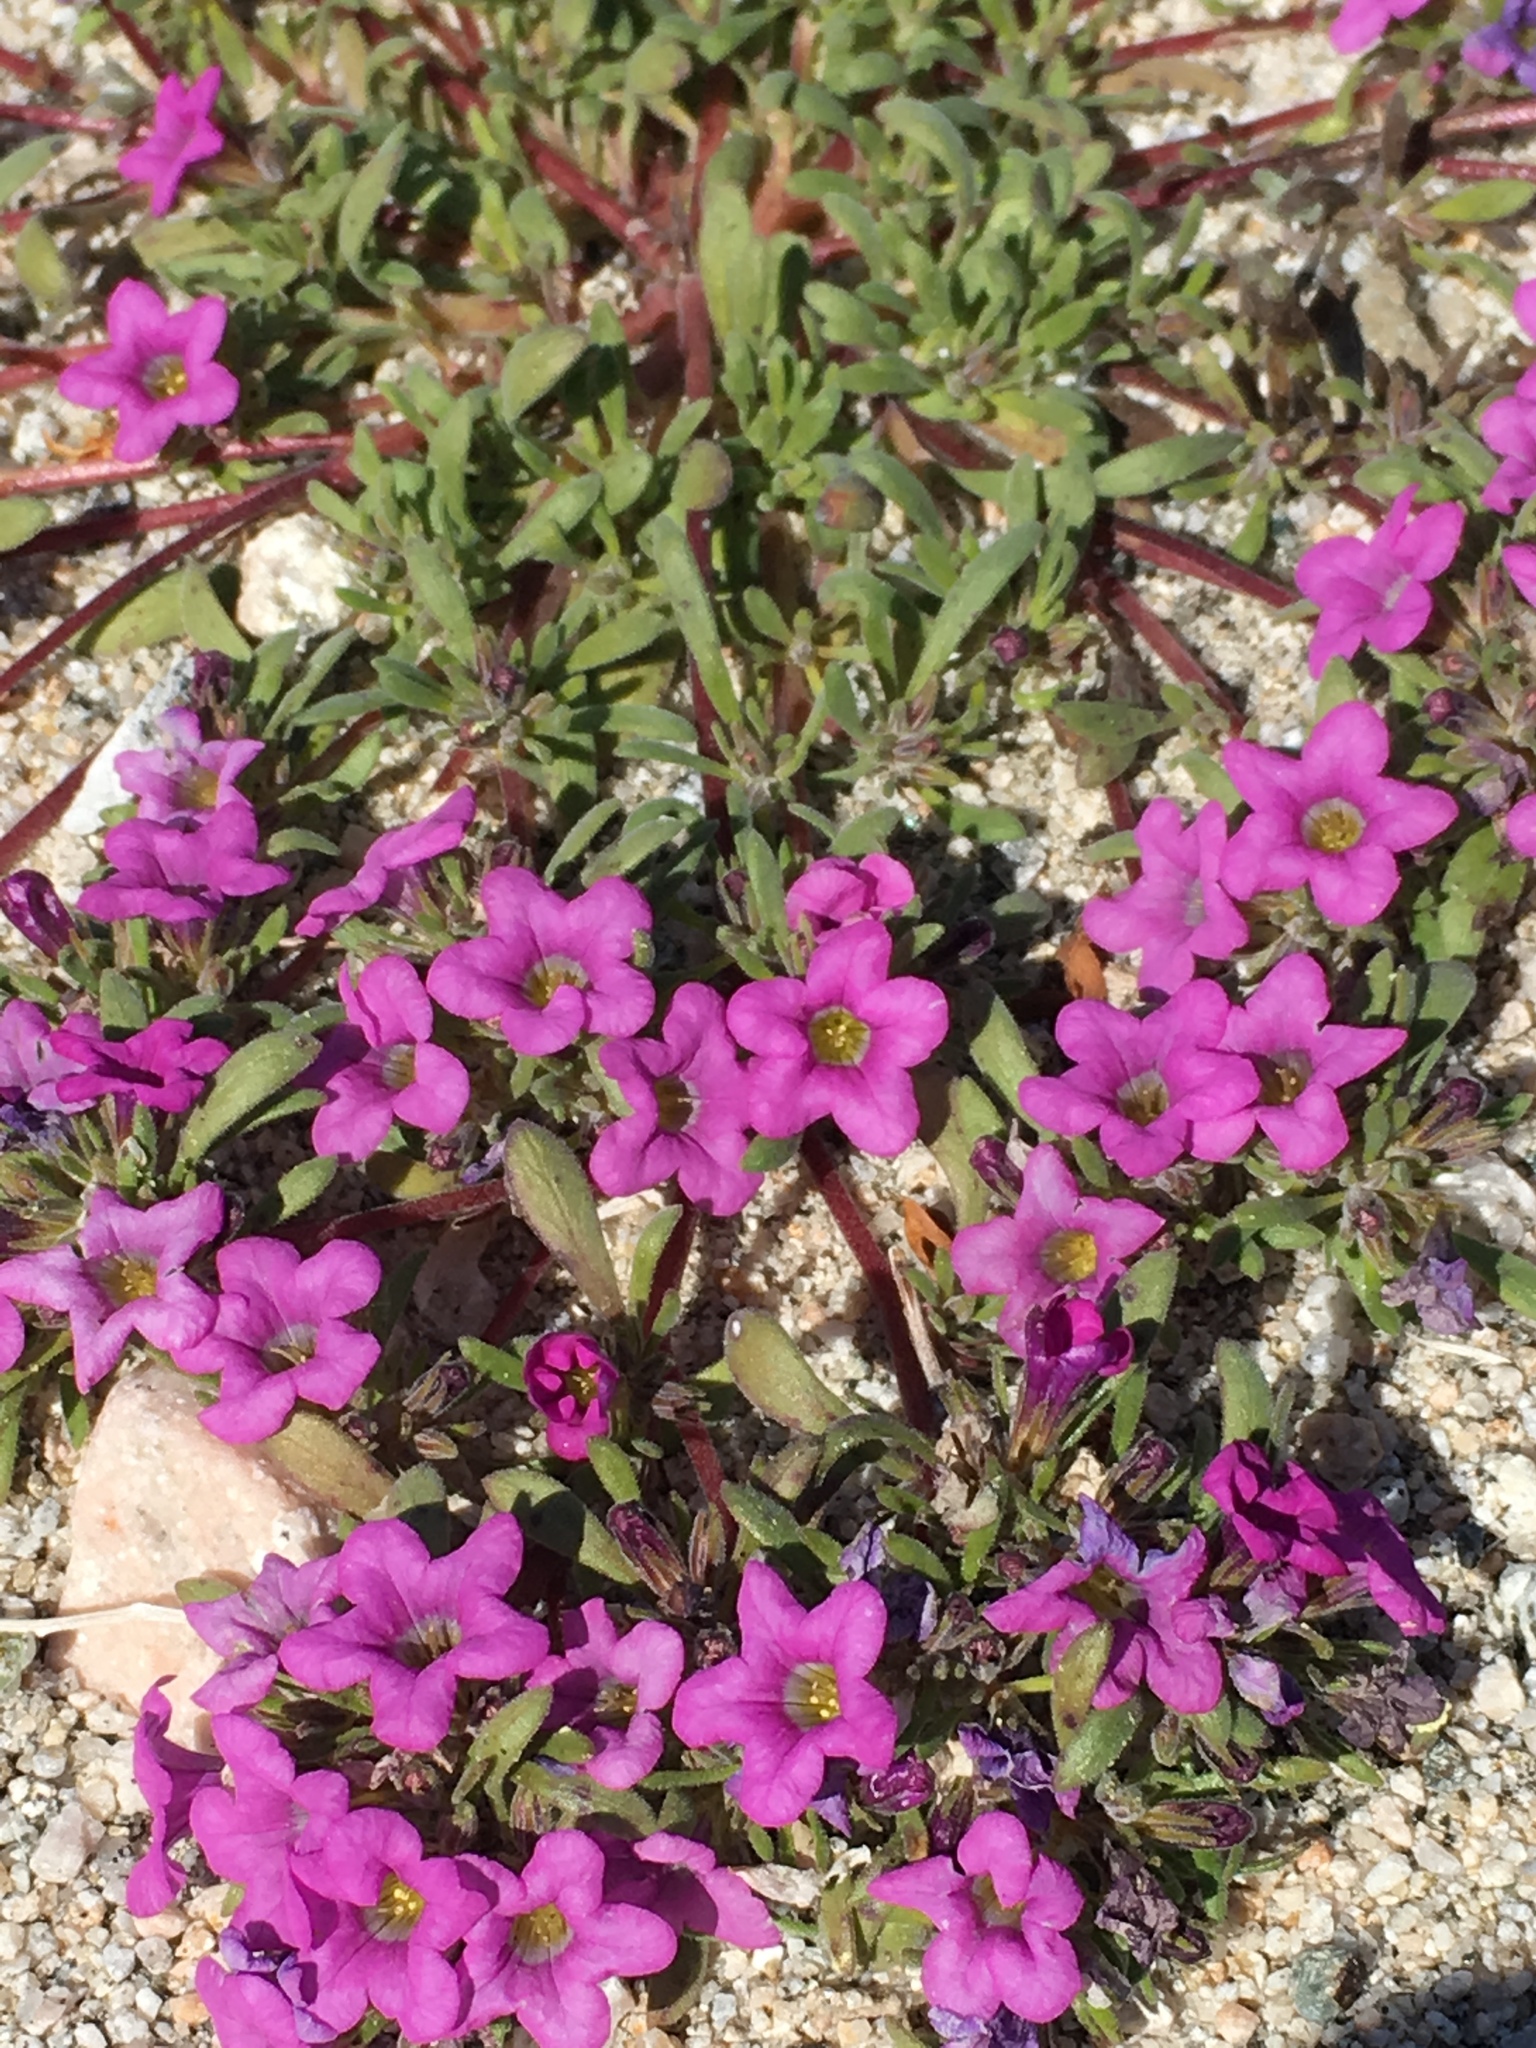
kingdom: Plantae
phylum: Tracheophyta
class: Magnoliopsida
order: Boraginales
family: Namaceae
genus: Nama
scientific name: Nama demissa
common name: Leafy nama
